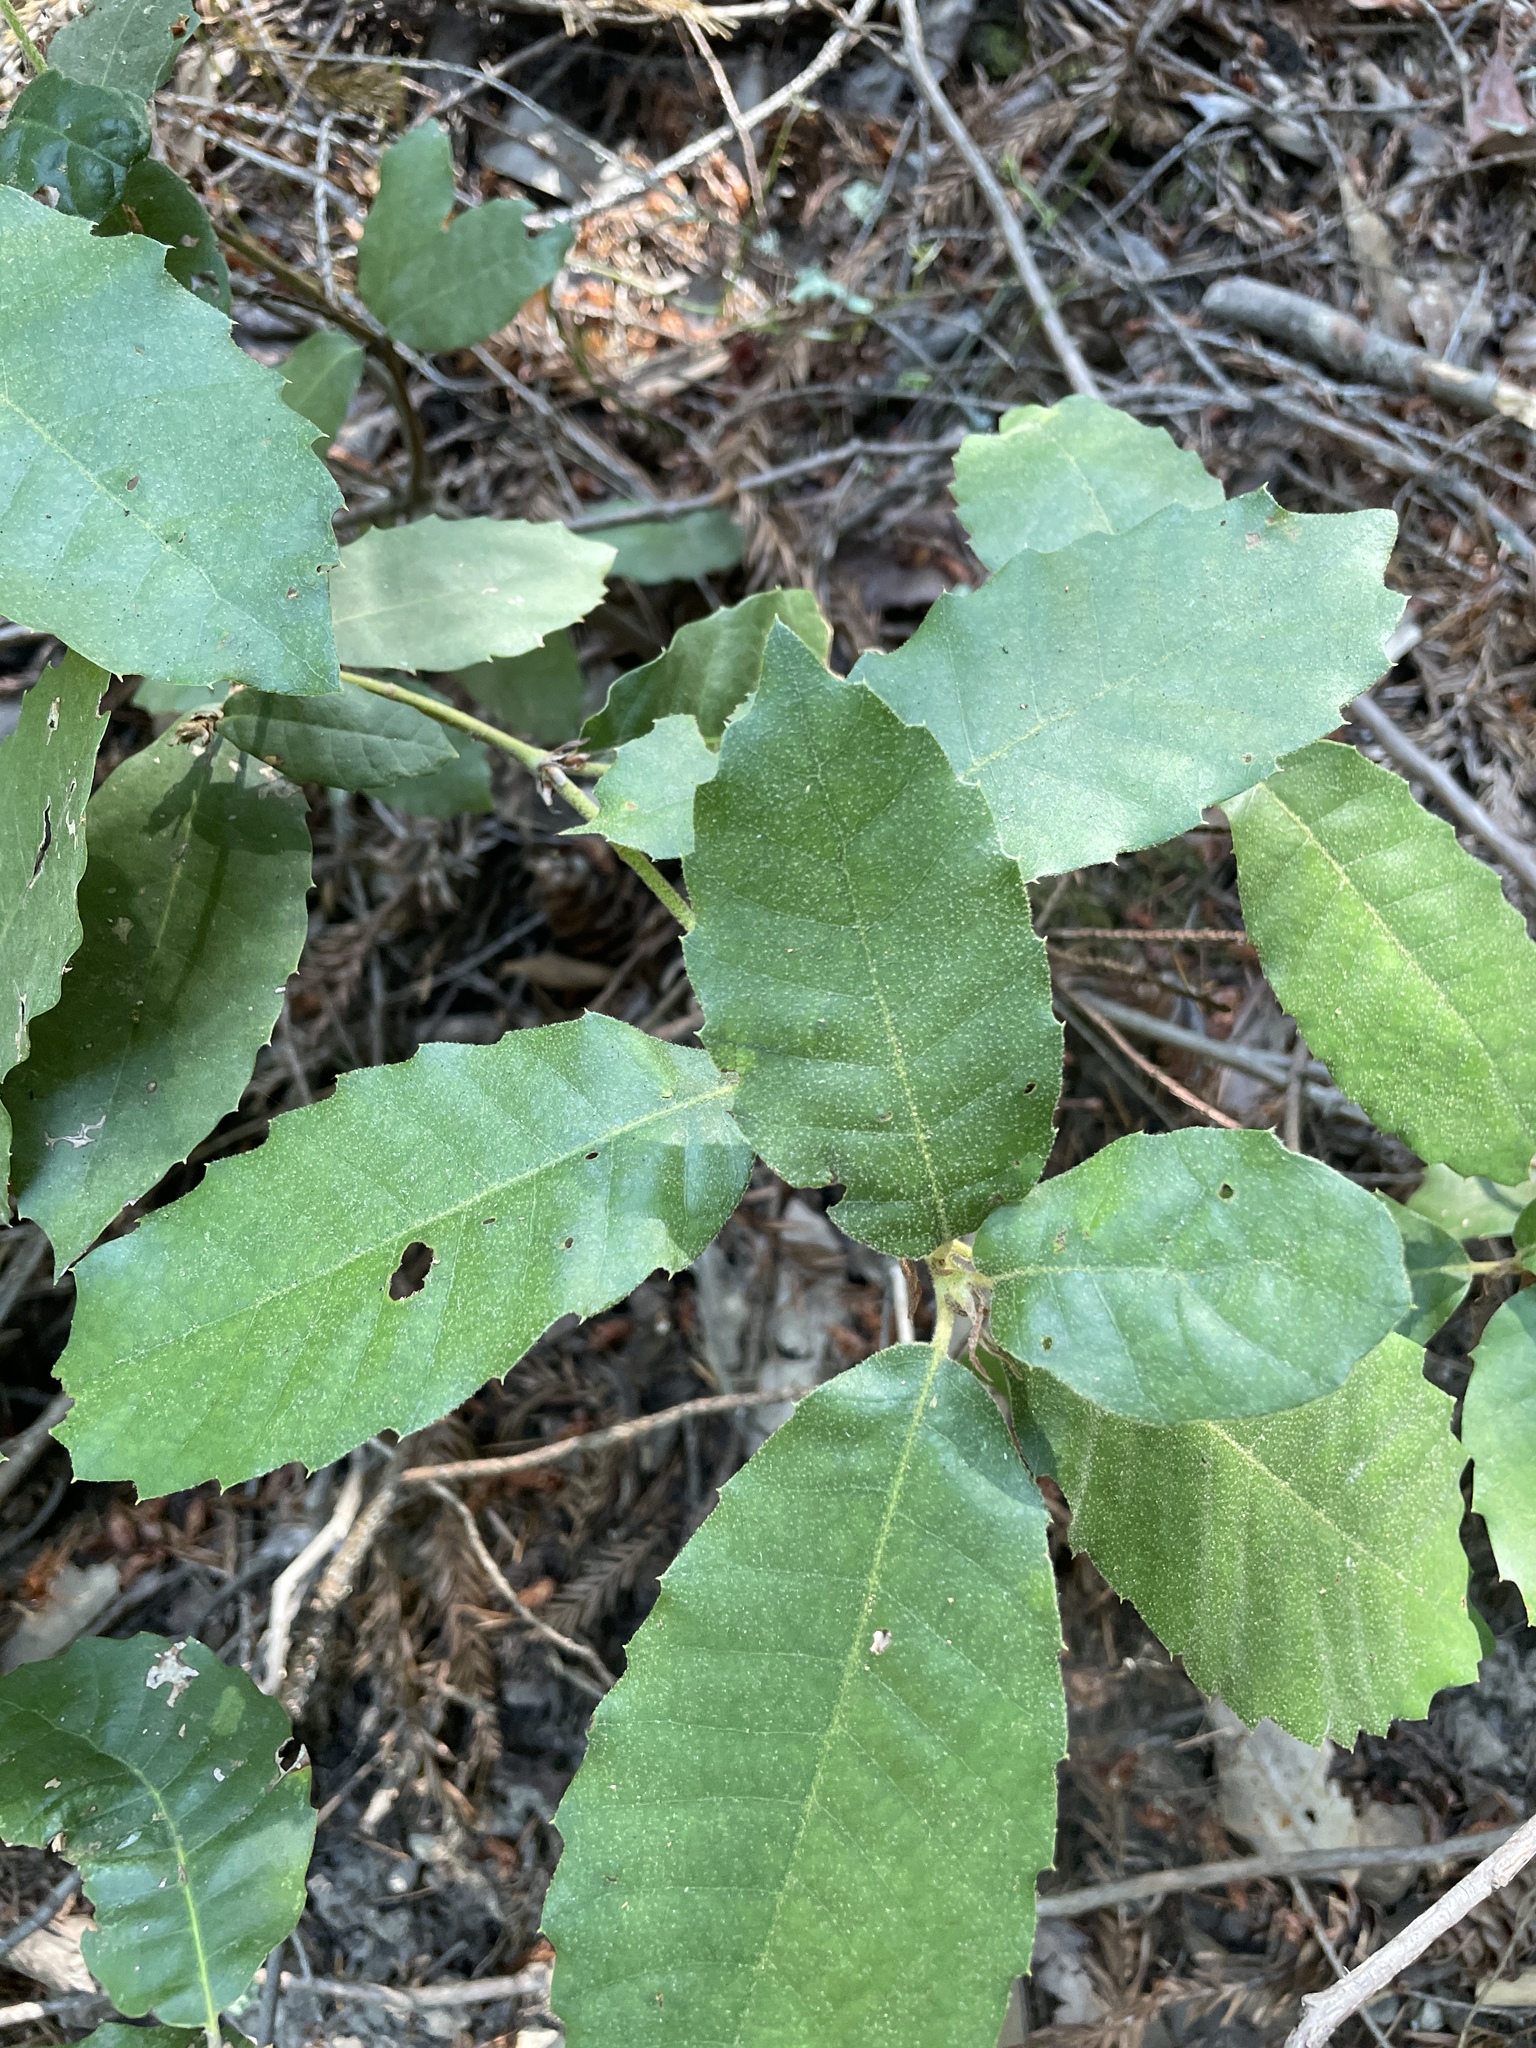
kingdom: Plantae
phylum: Tracheophyta
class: Magnoliopsida
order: Fagales
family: Fagaceae
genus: Notholithocarpus
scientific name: Notholithocarpus densiflorus
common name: Tan bark oak
